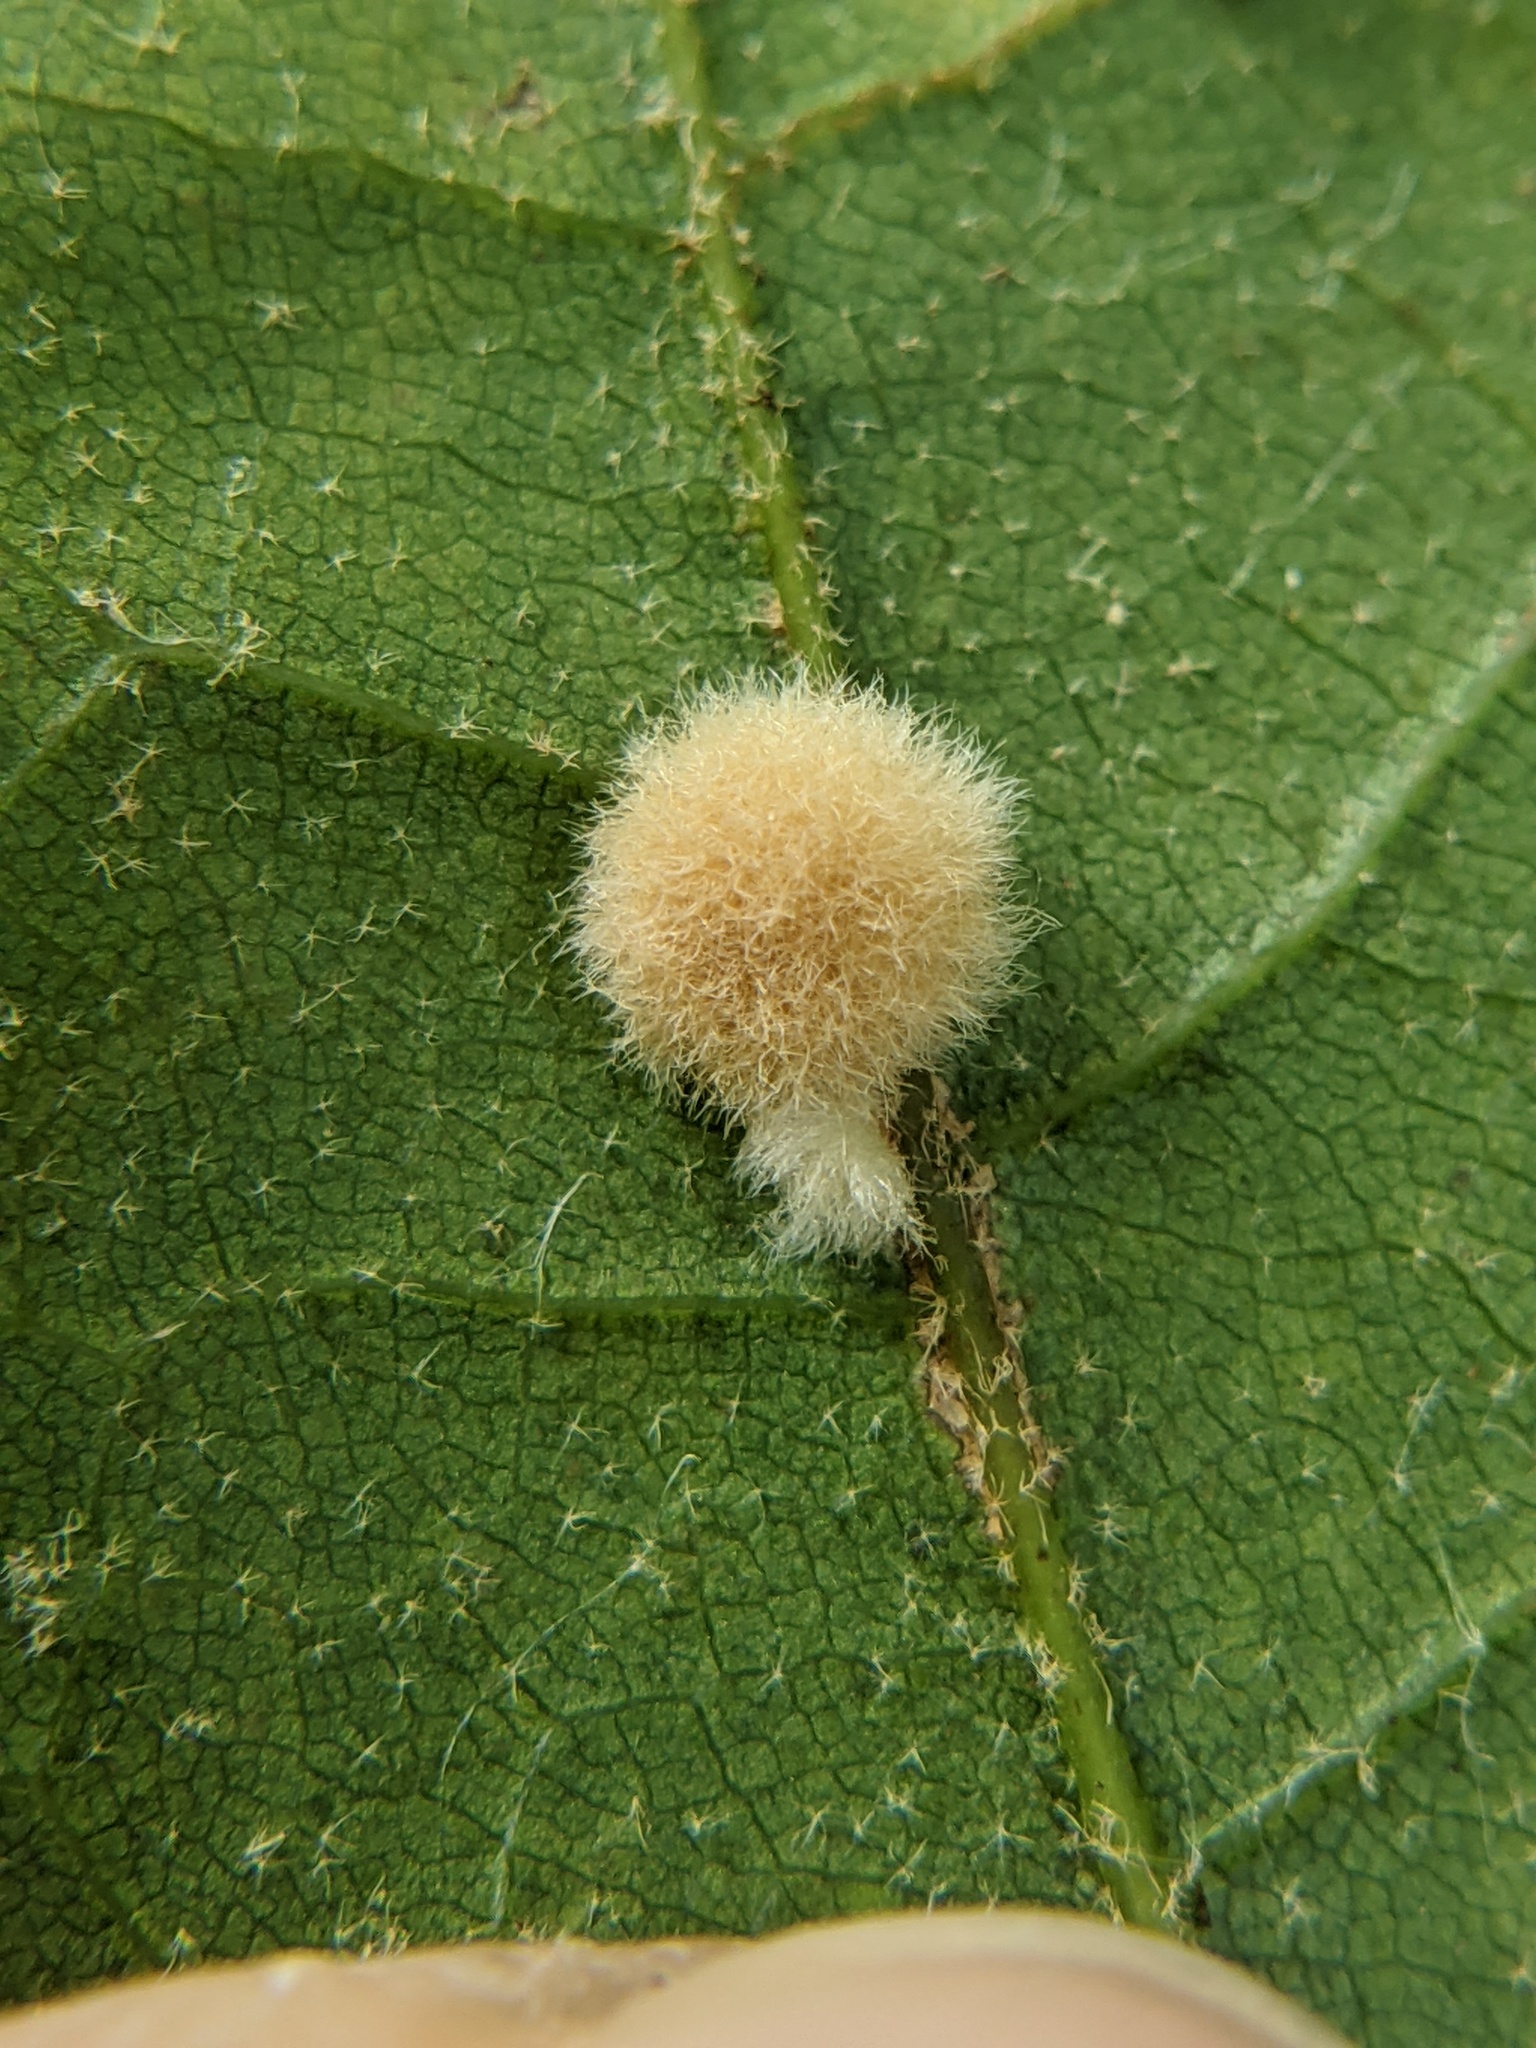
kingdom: Animalia
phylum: Arthropoda
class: Insecta
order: Hymenoptera
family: Cynipidae
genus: Callirhytis
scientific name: Callirhytis
